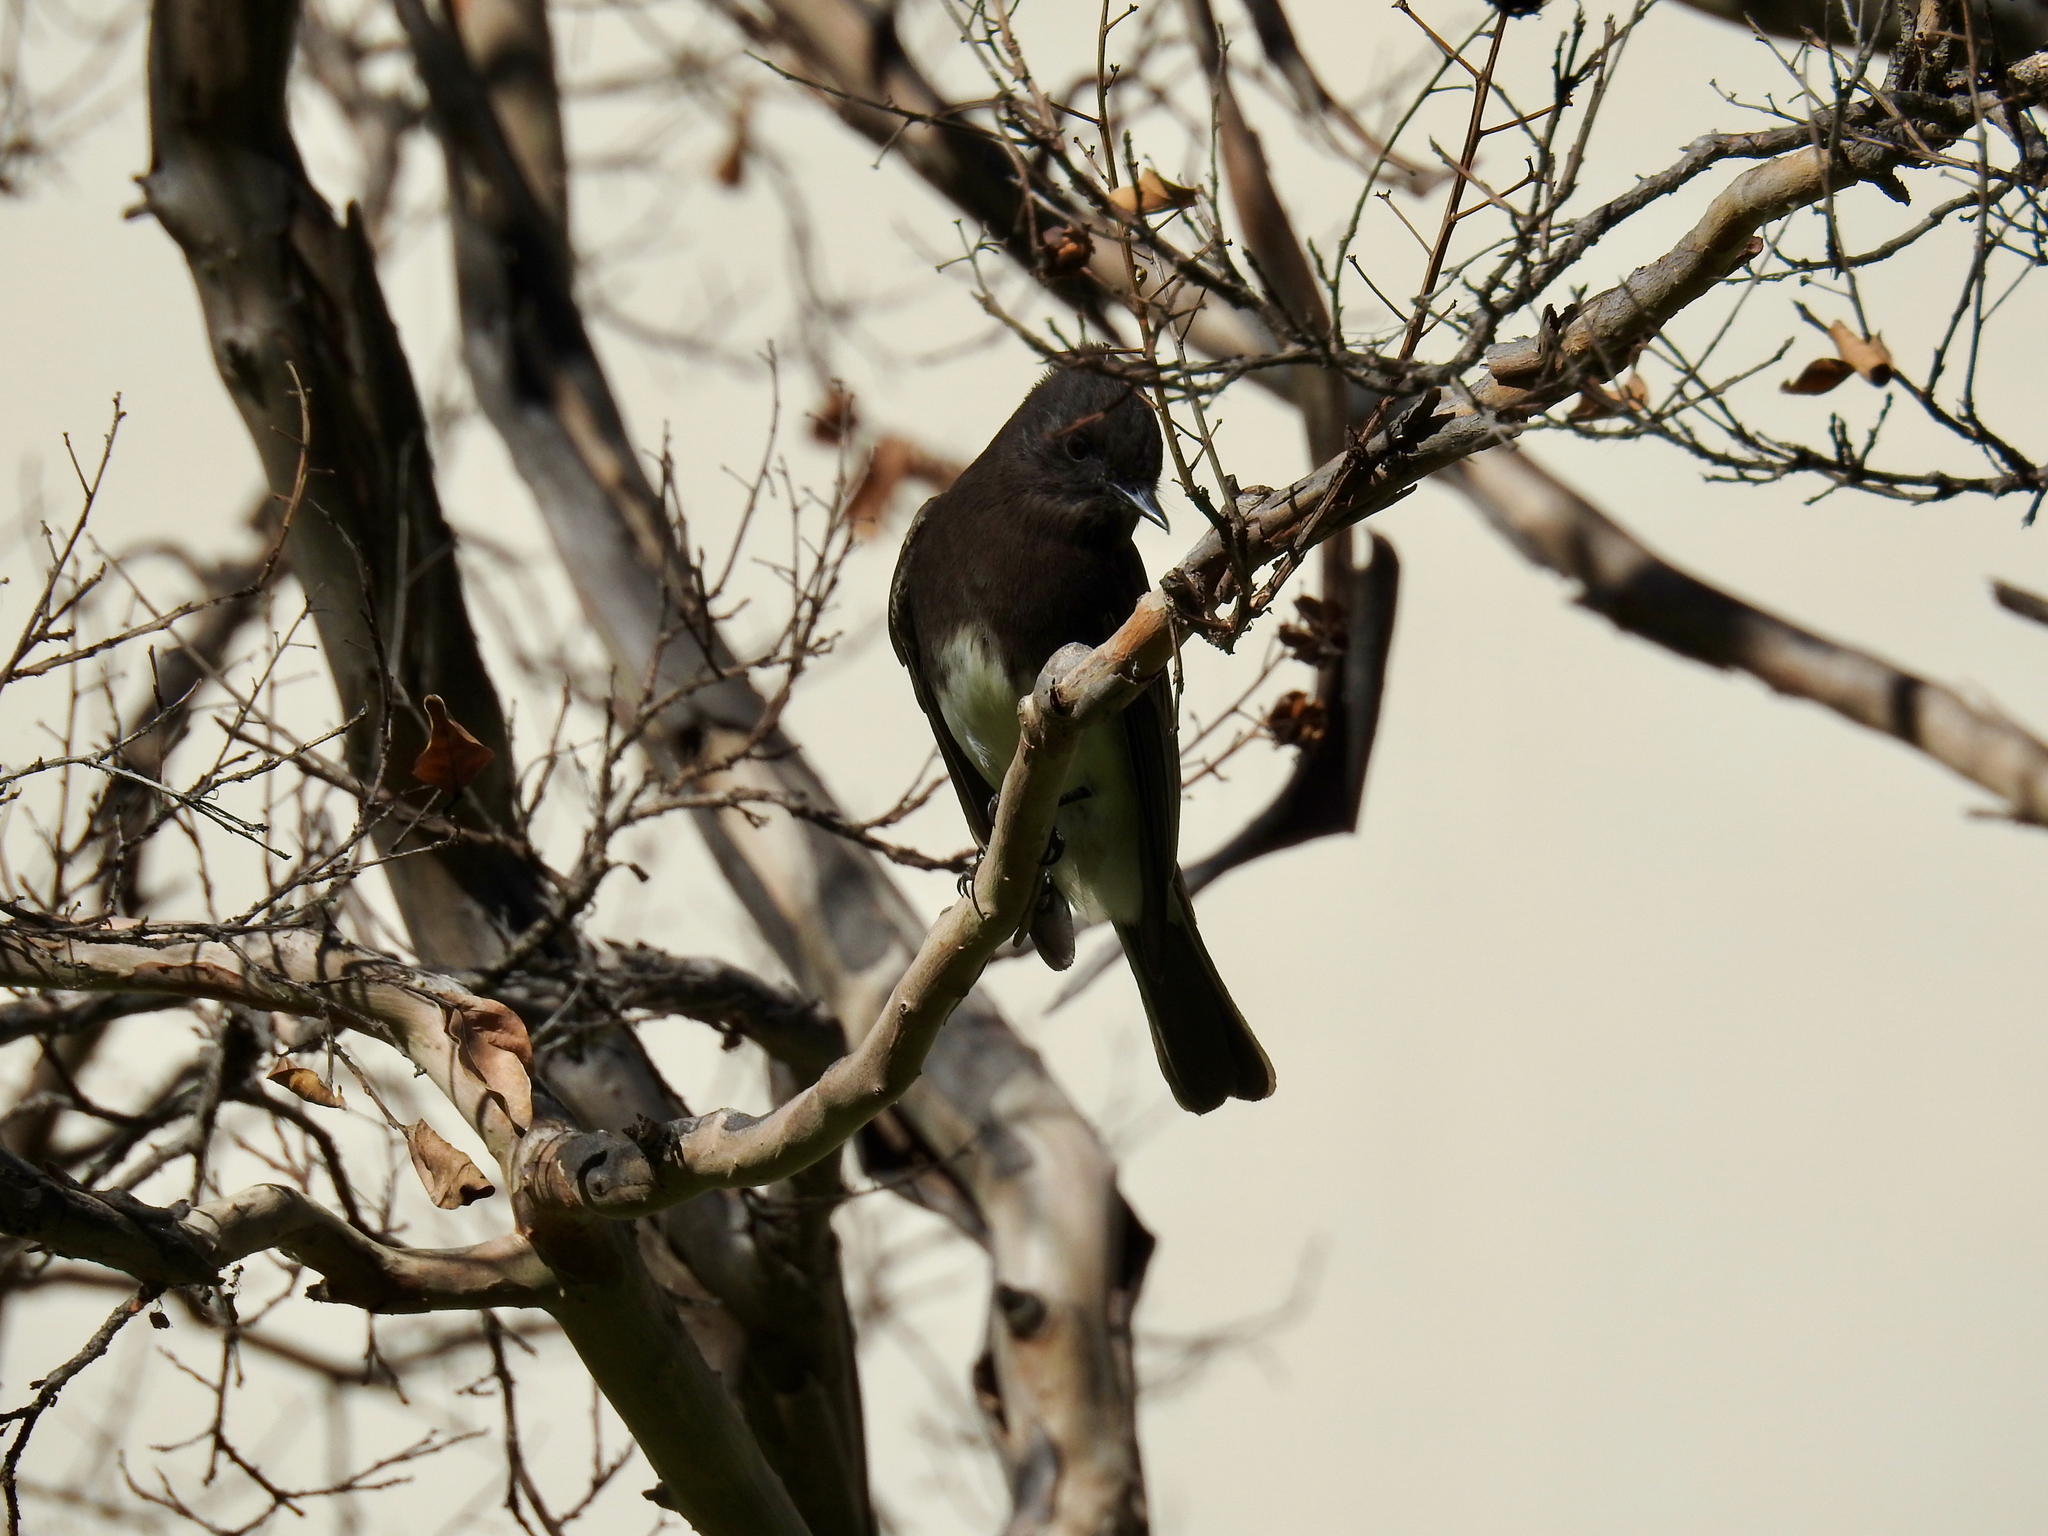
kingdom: Animalia
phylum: Chordata
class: Aves
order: Passeriformes
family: Tyrannidae
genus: Sayornis
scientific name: Sayornis nigricans
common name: Black phoebe
